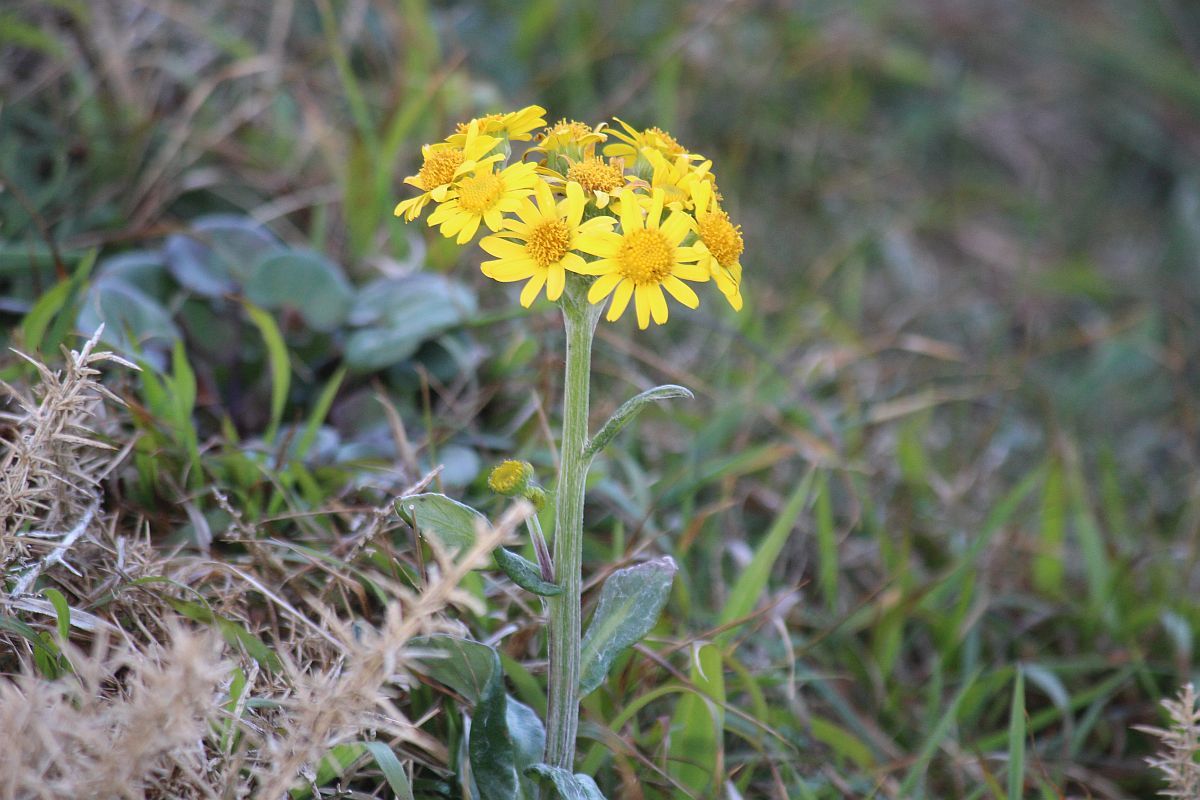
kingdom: Plantae
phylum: Tracheophyta
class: Magnoliopsida
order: Asterales
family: Asteraceae
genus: Tephroseris
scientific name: Tephroseris integrifolia
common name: Field fleawort
